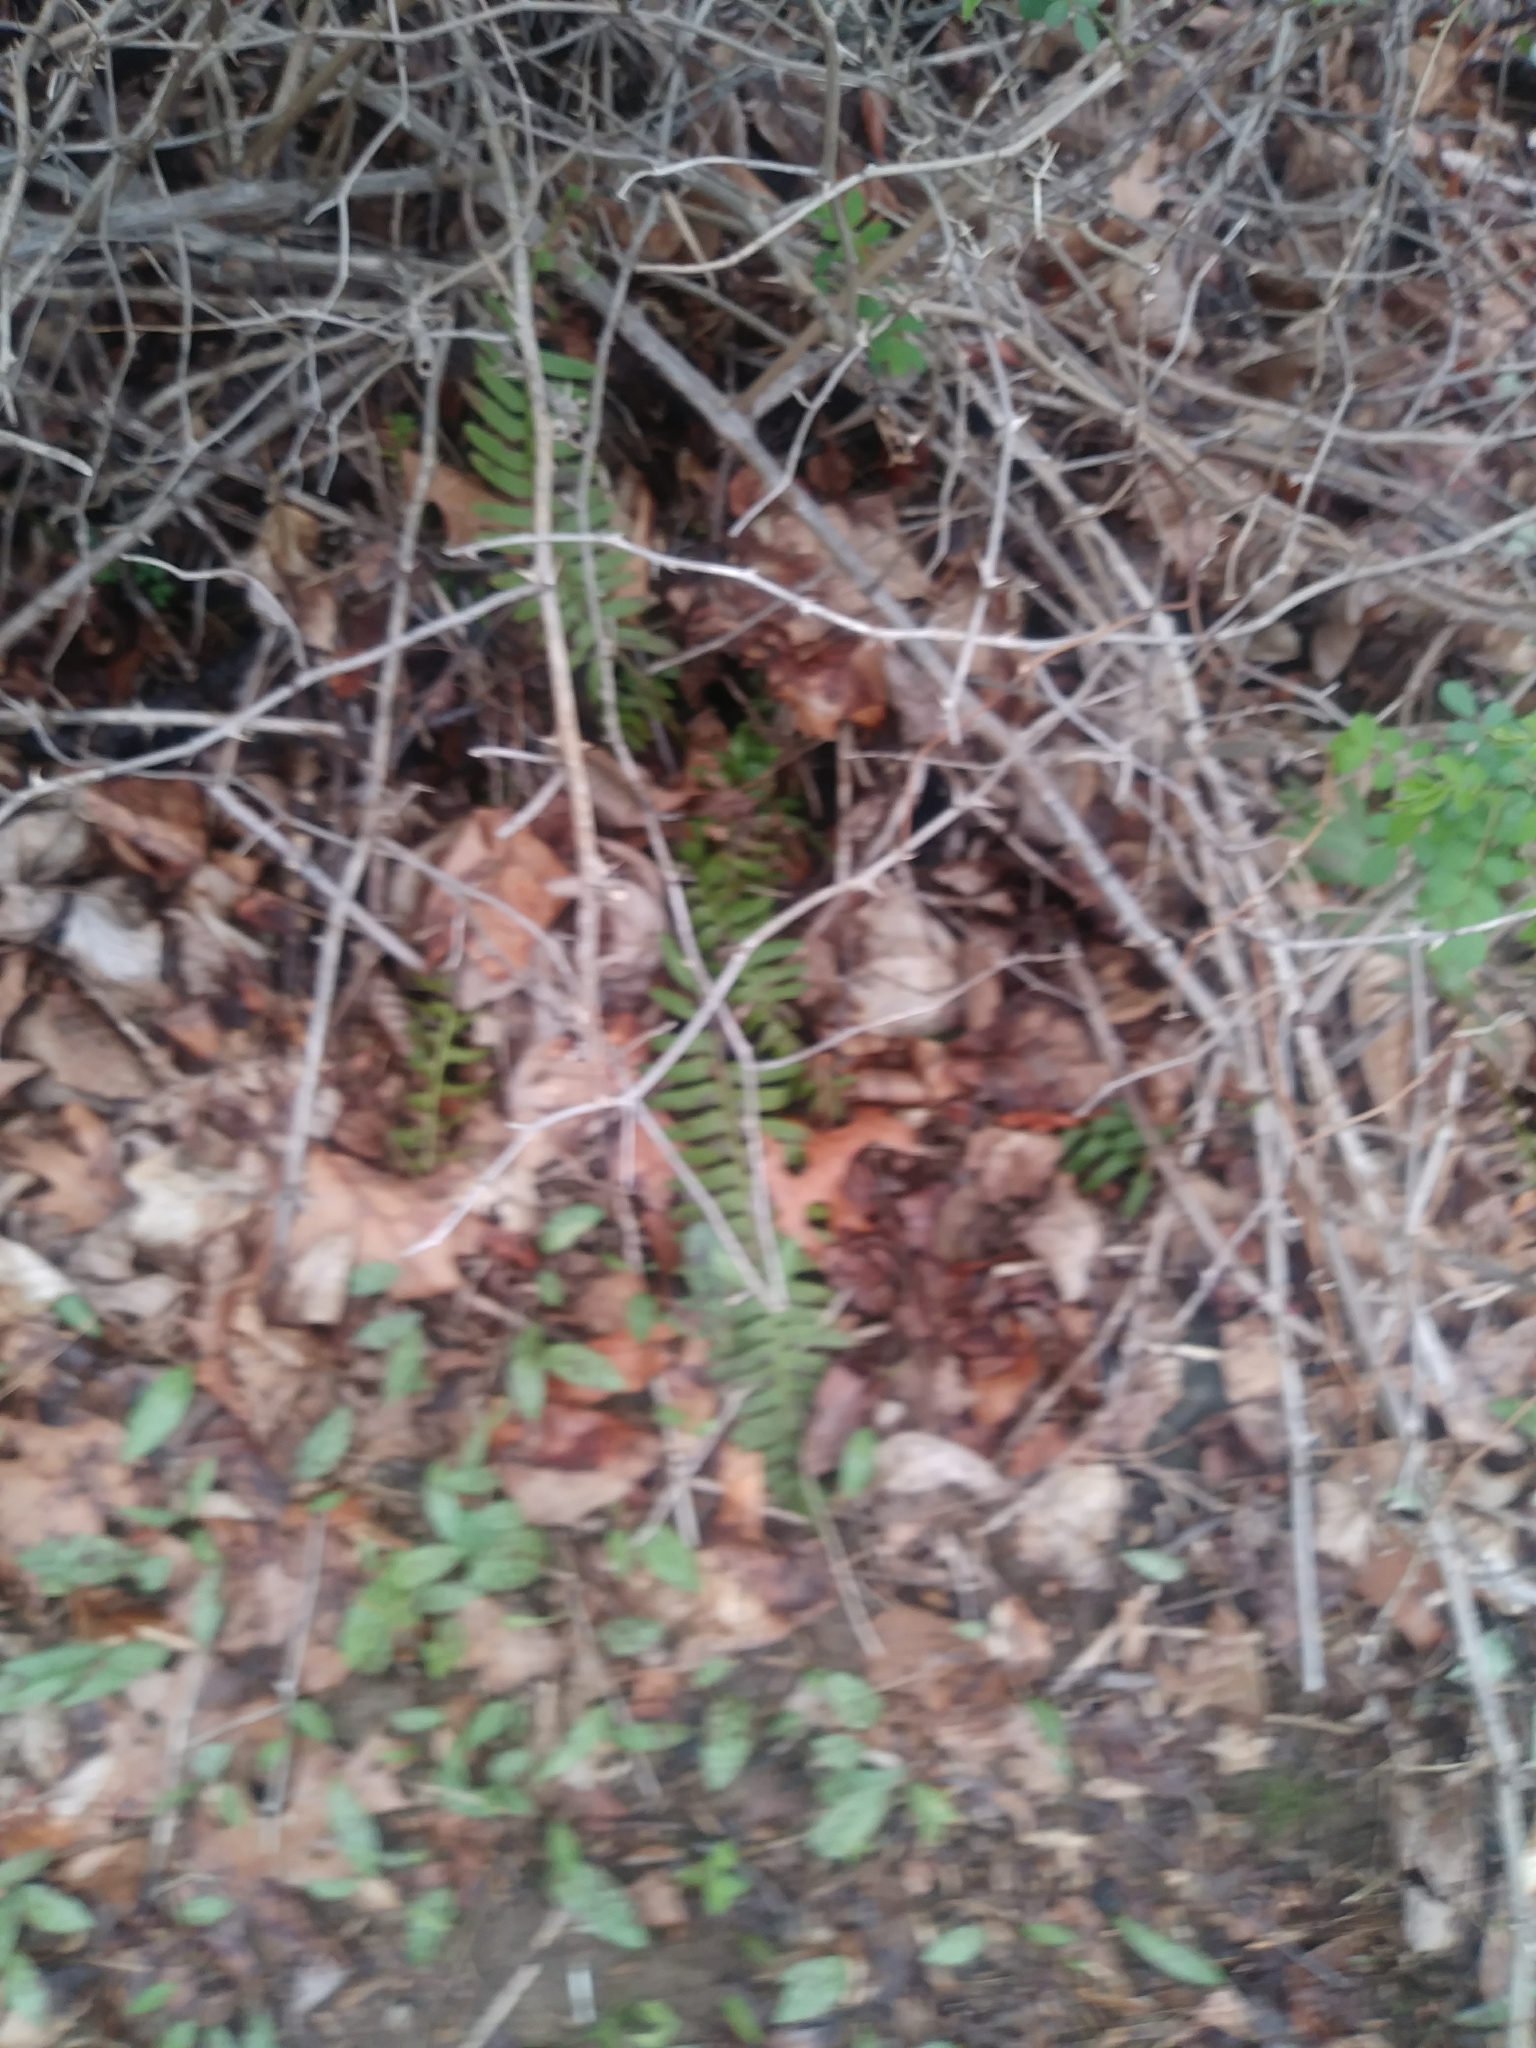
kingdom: Plantae
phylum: Tracheophyta
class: Polypodiopsida
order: Polypodiales
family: Dryopteridaceae
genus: Polystichum
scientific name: Polystichum acrostichoides
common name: Christmas fern
